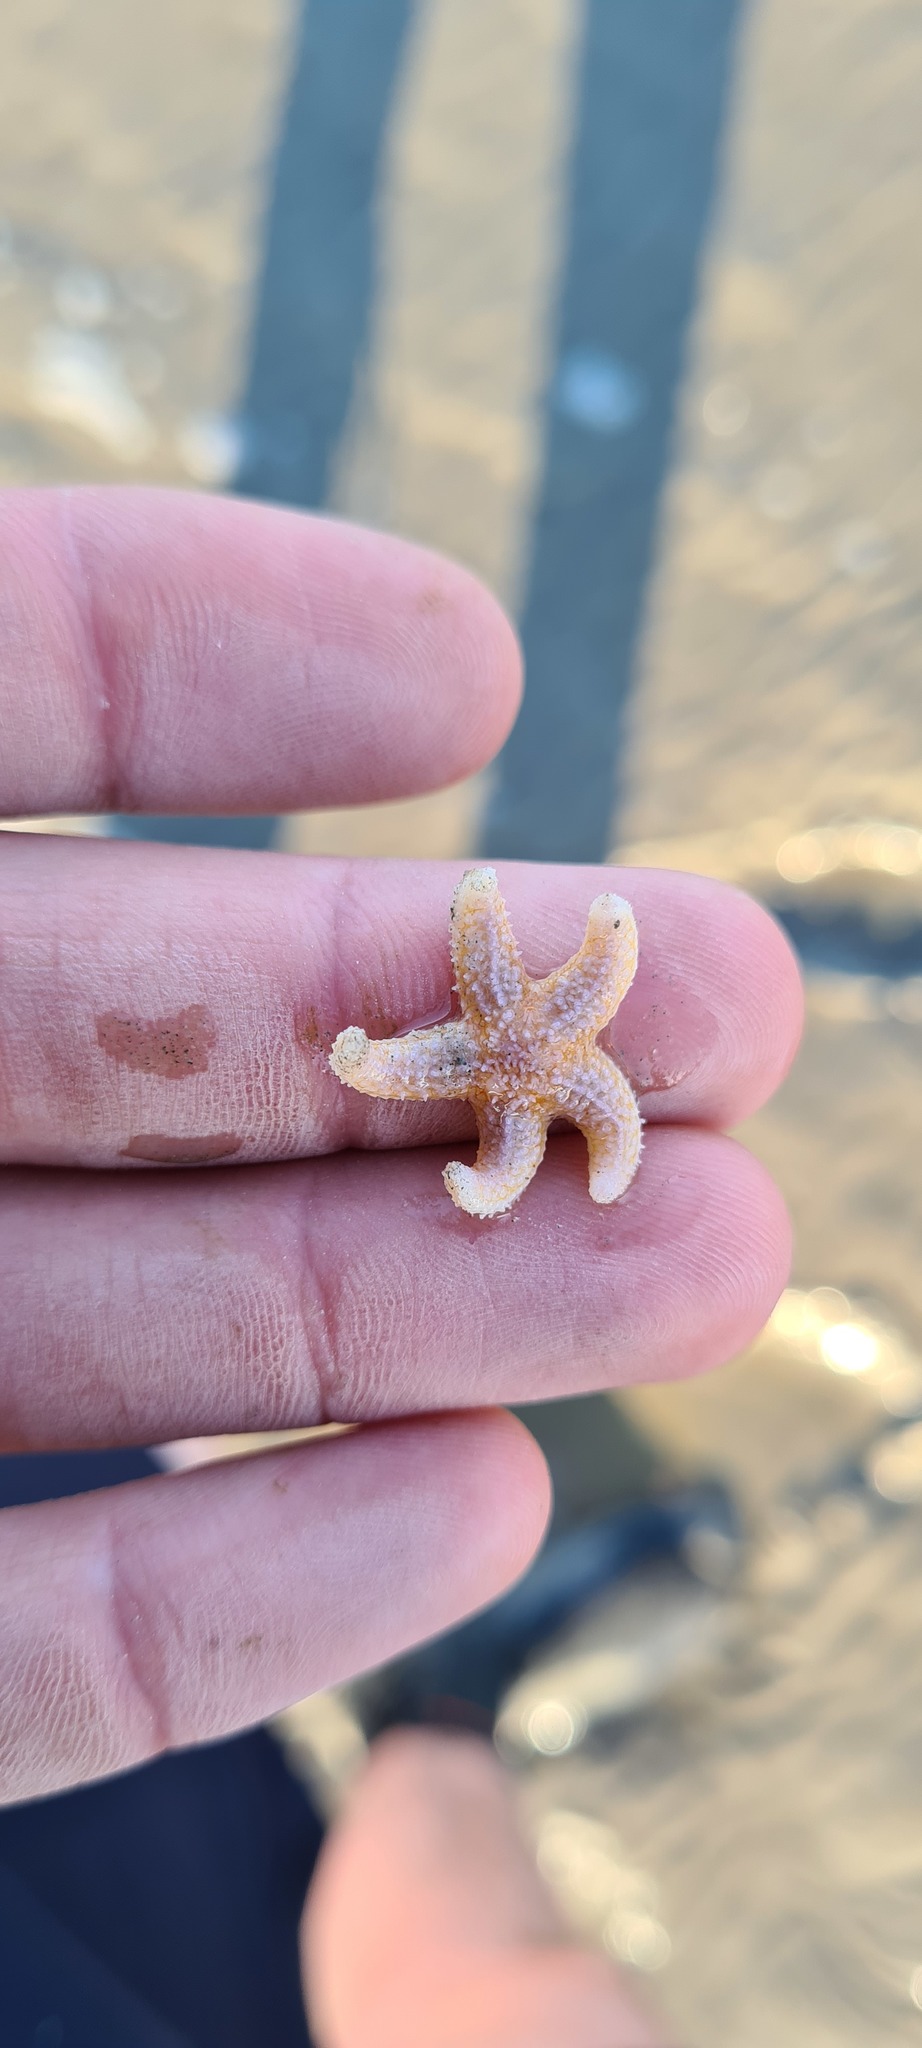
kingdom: Animalia
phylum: Echinodermata
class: Asteroidea
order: Forcipulatida
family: Asteriidae
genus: Asterias
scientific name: Asterias rubens
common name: Common starfish
